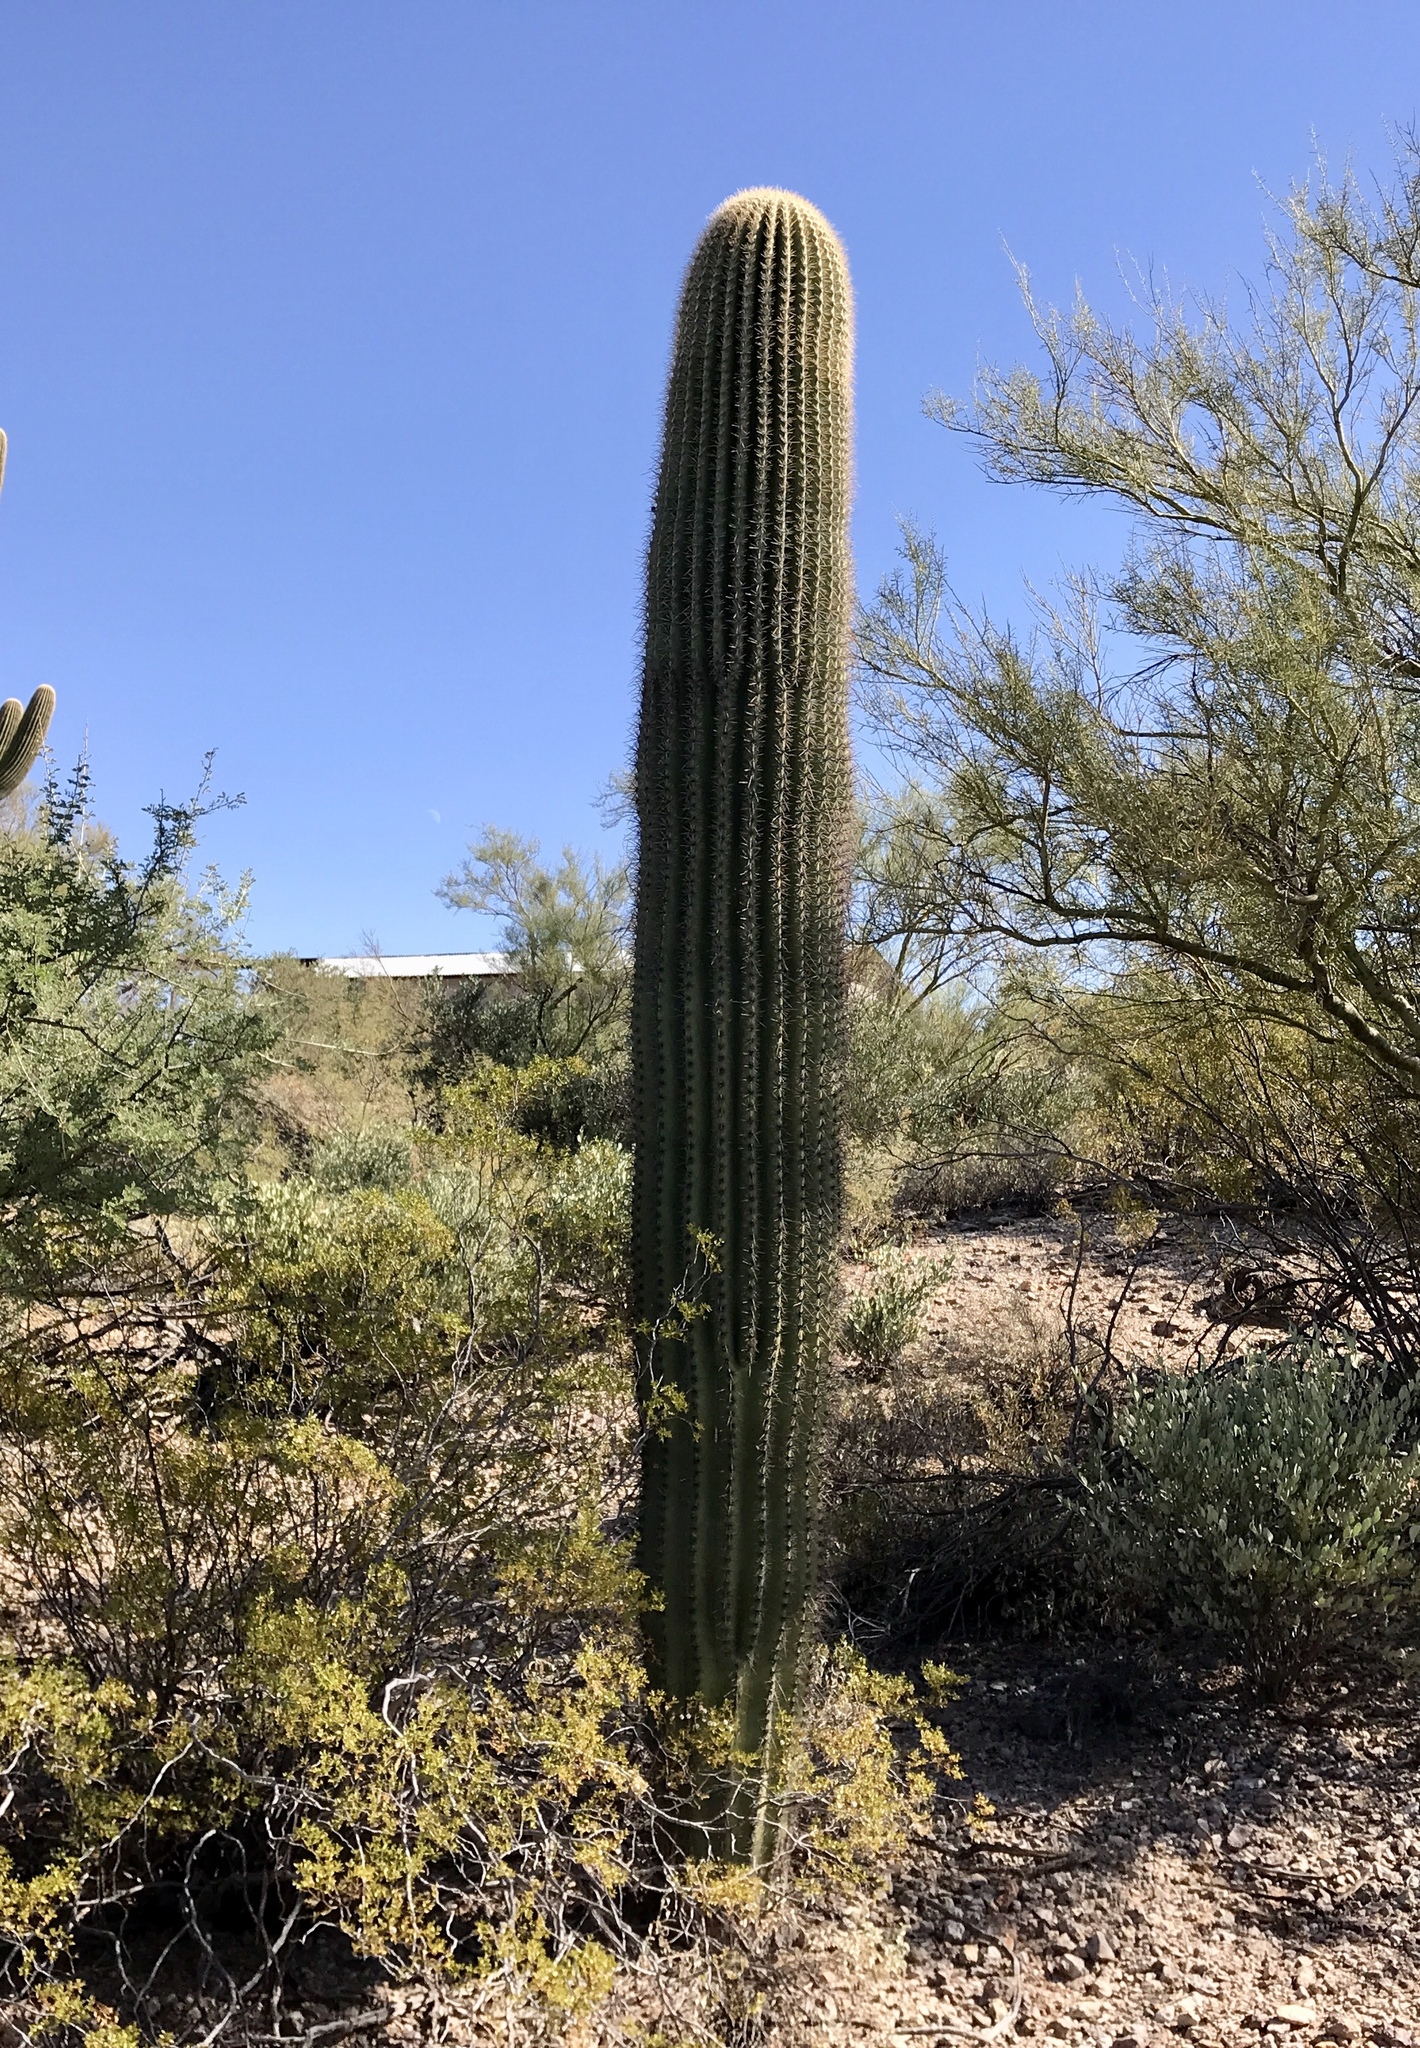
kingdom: Plantae
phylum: Tracheophyta
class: Magnoliopsida
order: Caryophyllales
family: Cactaceae
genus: Carnegiea
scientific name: Carnegiea gigantea
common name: Saguaro
